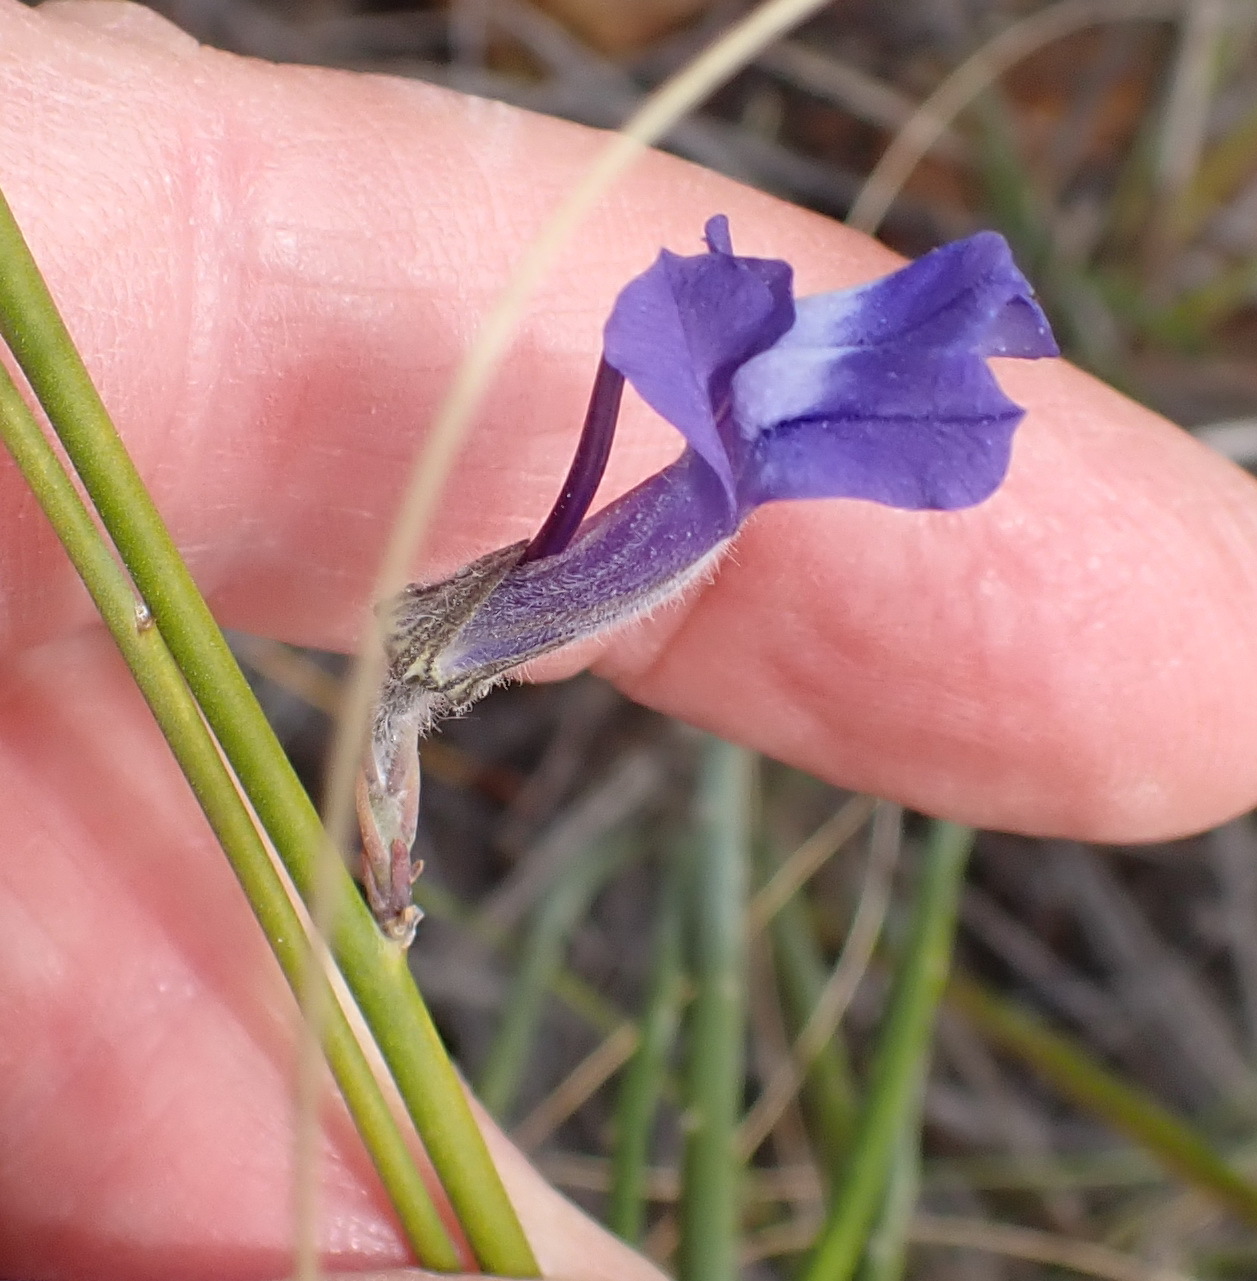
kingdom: Plantae
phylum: Tracheophyta
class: Magnoliopsida
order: Asterales
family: Campanulaceae
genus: Lobelia
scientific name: Lobelia linearis
